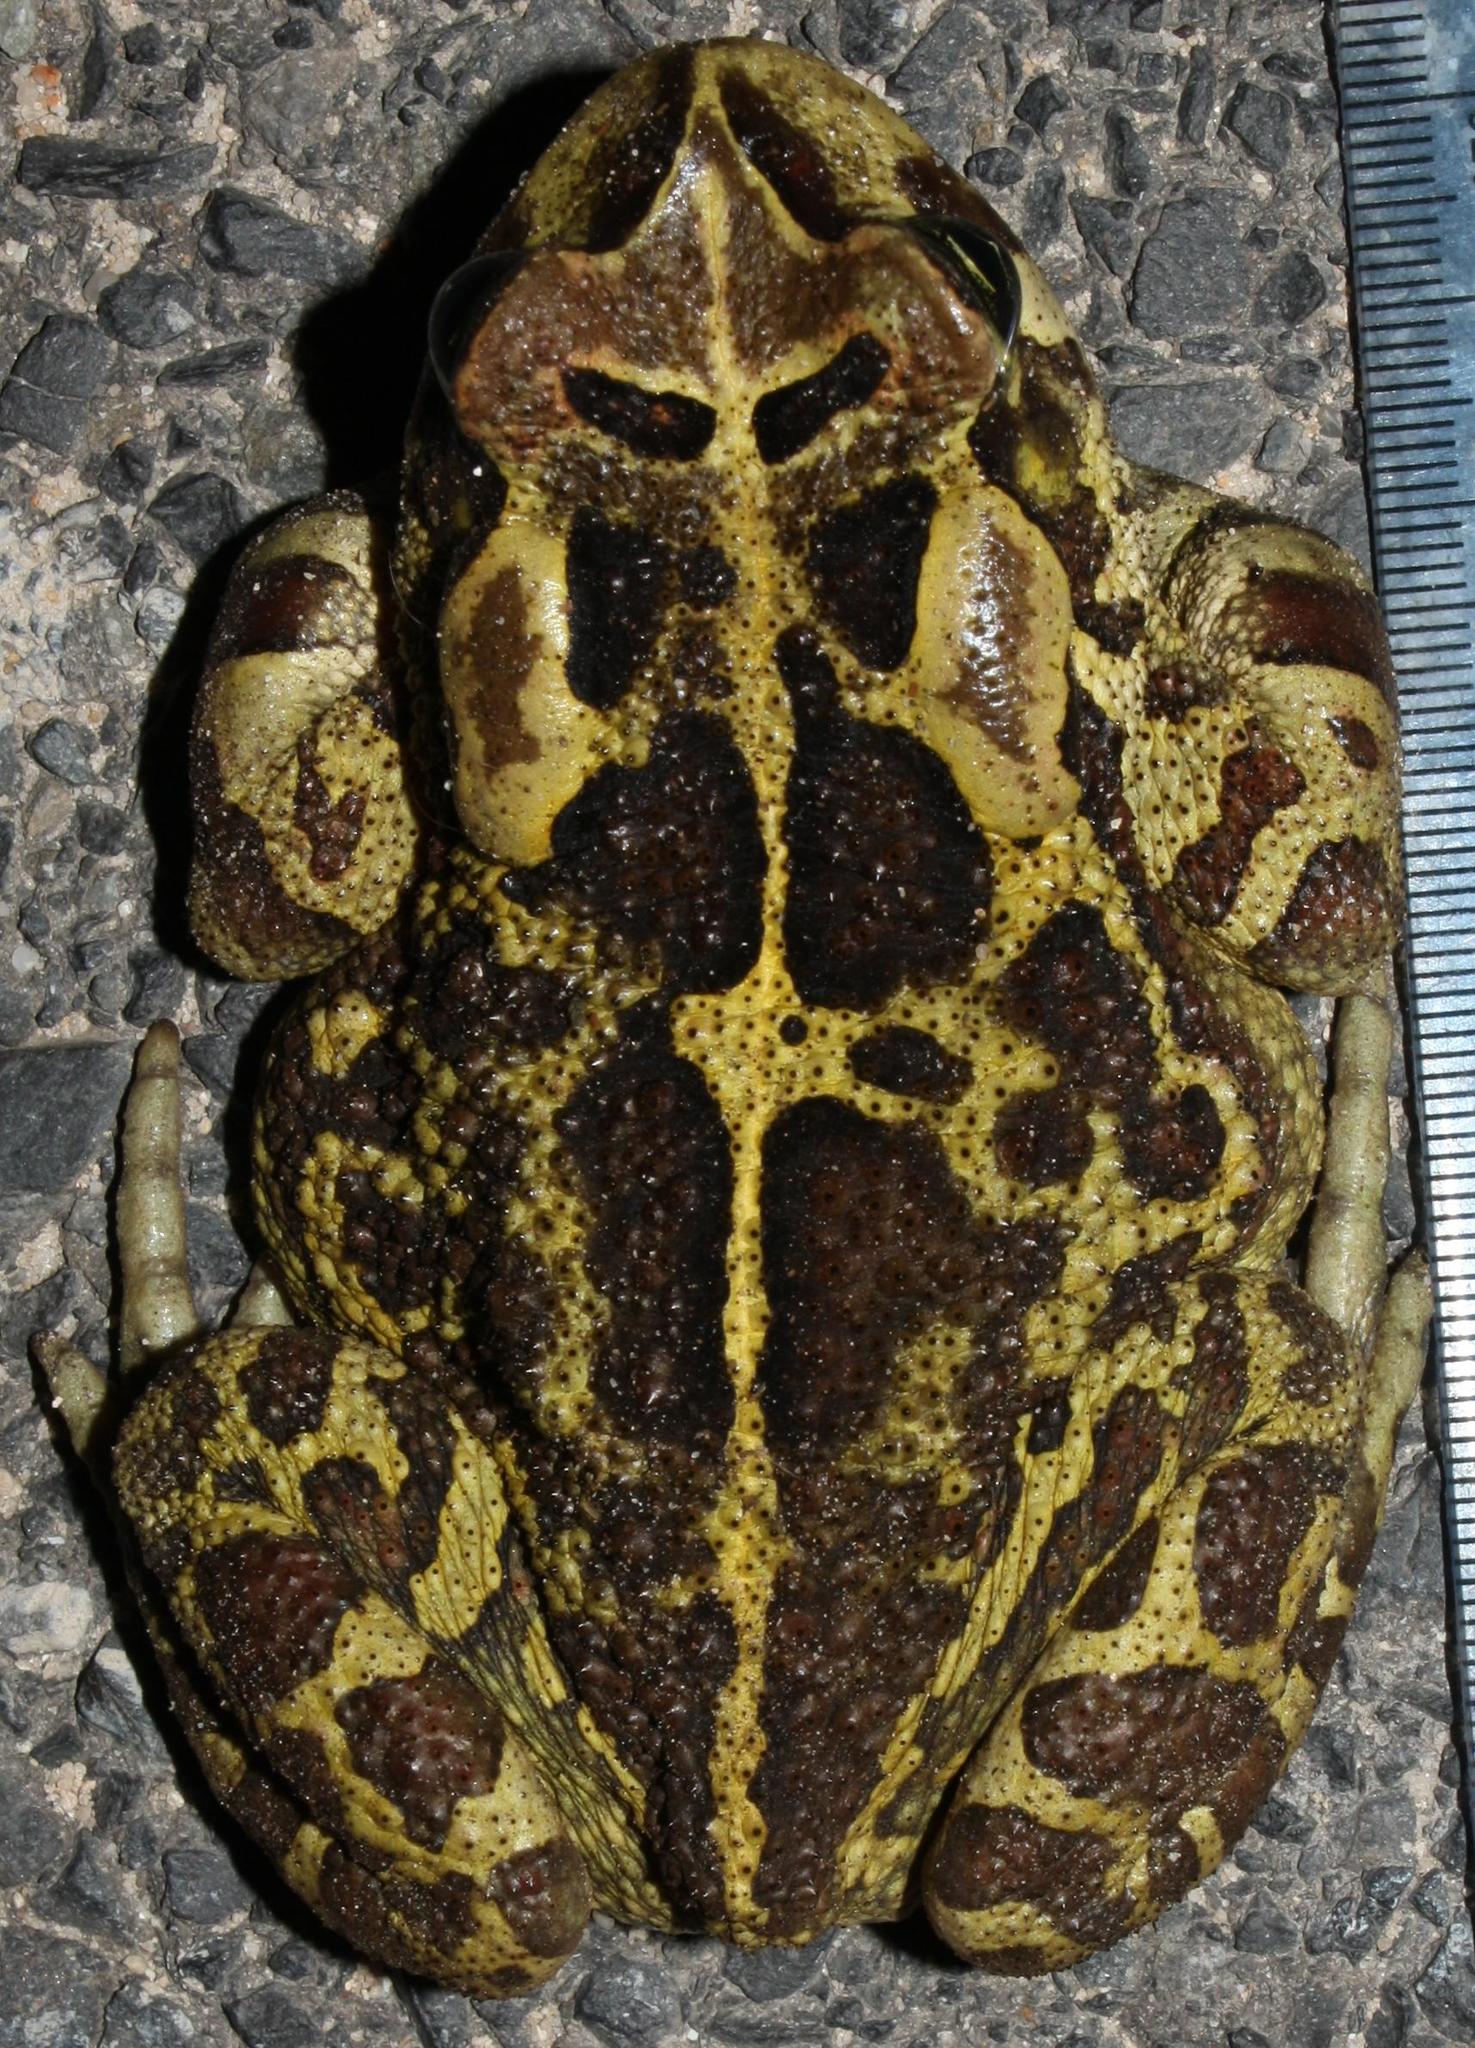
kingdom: Animalia
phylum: Chordata
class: Amphibia
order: Anura
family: Bufonidae
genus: Sclerophrys
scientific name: Sclerophrys pantherina
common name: Panther toad
